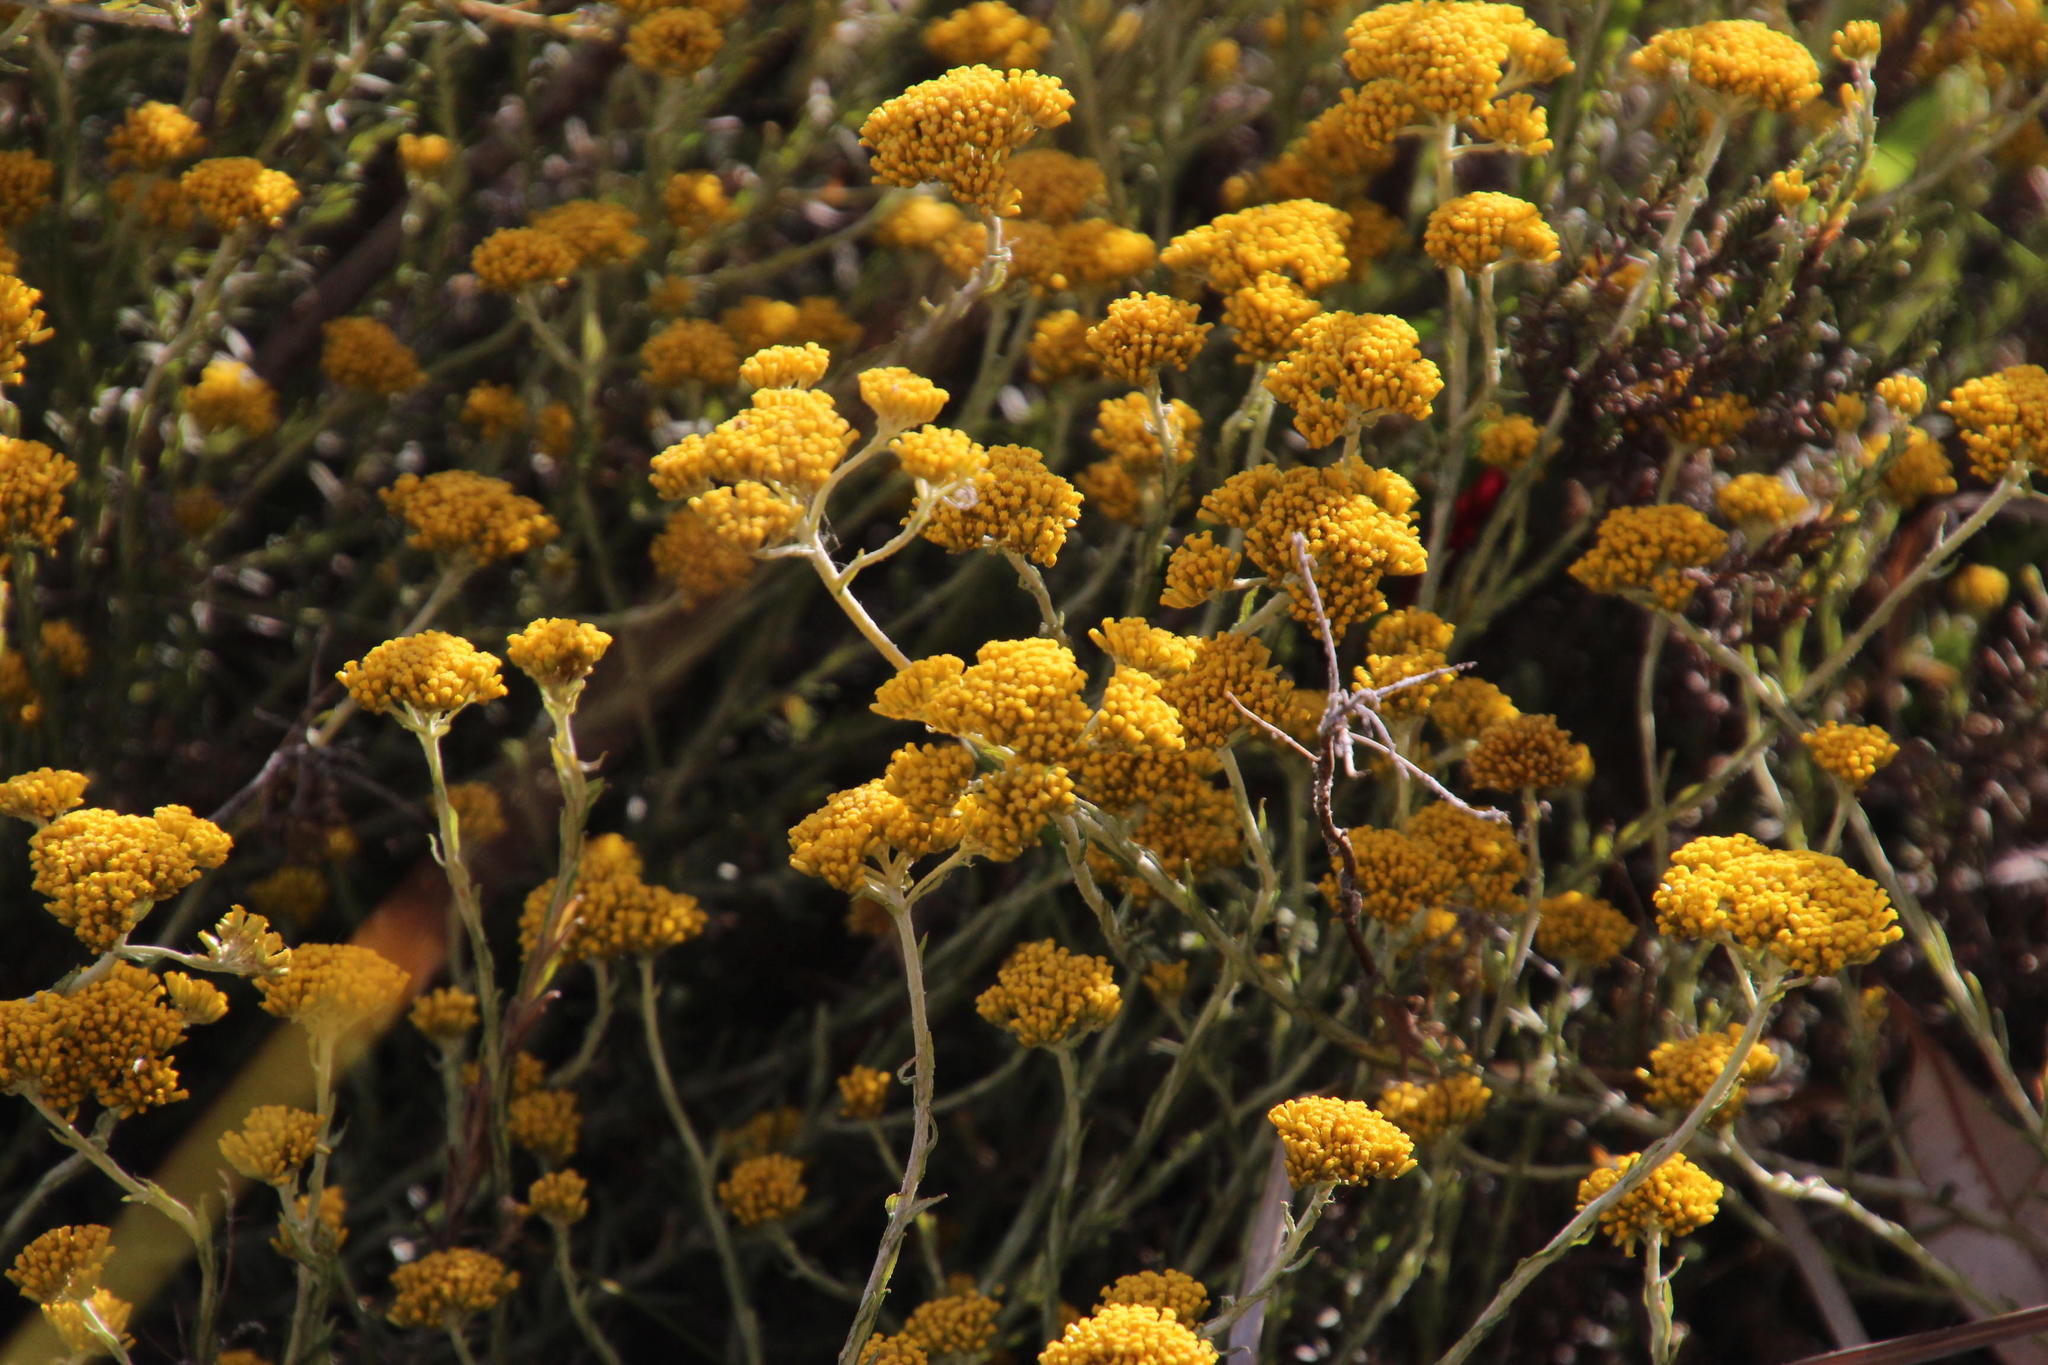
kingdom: Plantae
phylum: Tracheophyta
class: Magnoliopsida
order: Asterales
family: Asteraceae
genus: Helichrysum
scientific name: Helichrysum cymosum
